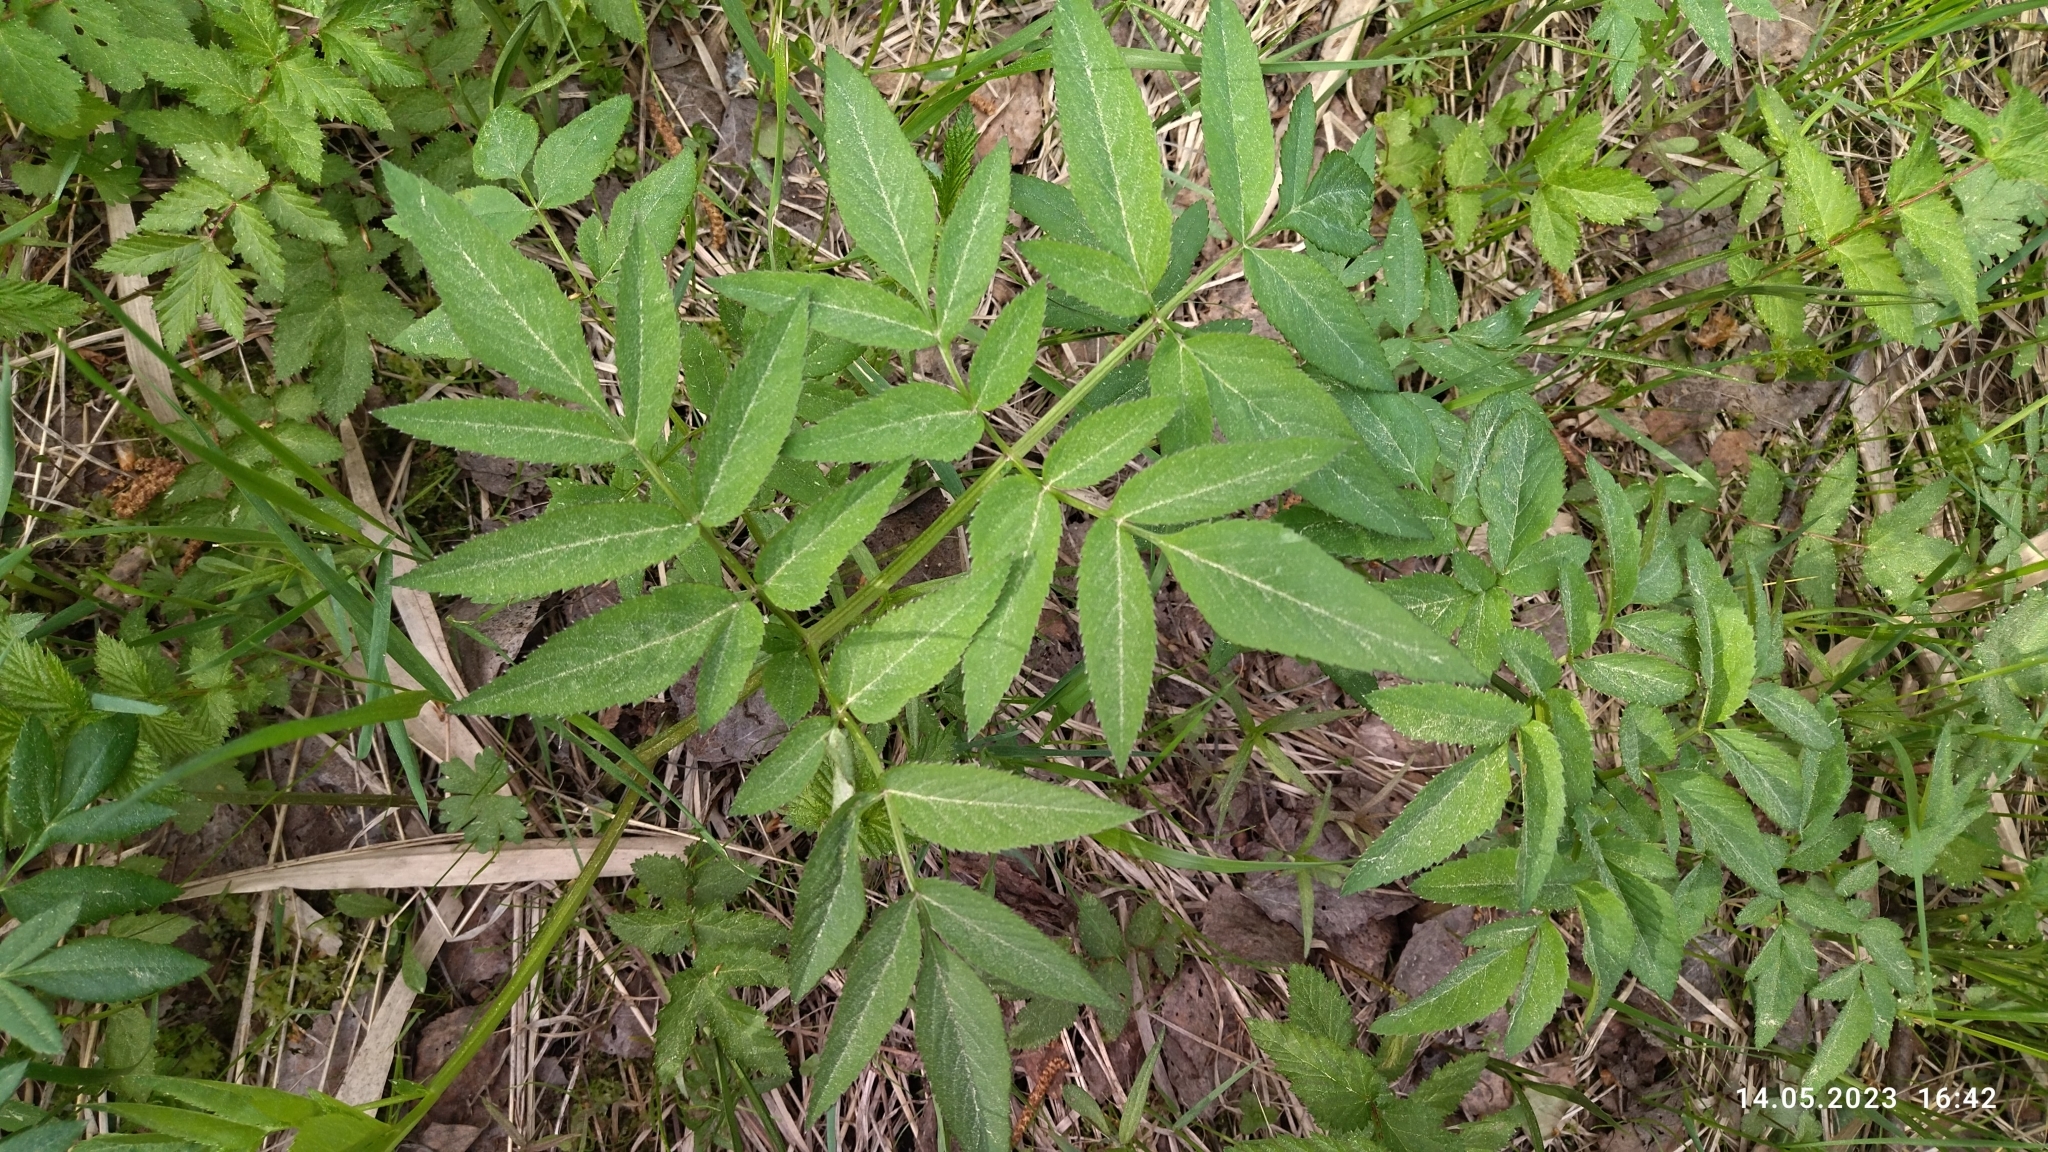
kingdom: Plantae
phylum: Tracheophyta
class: Magnoliopsida
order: Apiales
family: Apiaceae
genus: Angelica
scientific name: Angelica sylvestris
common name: Wild angelica
